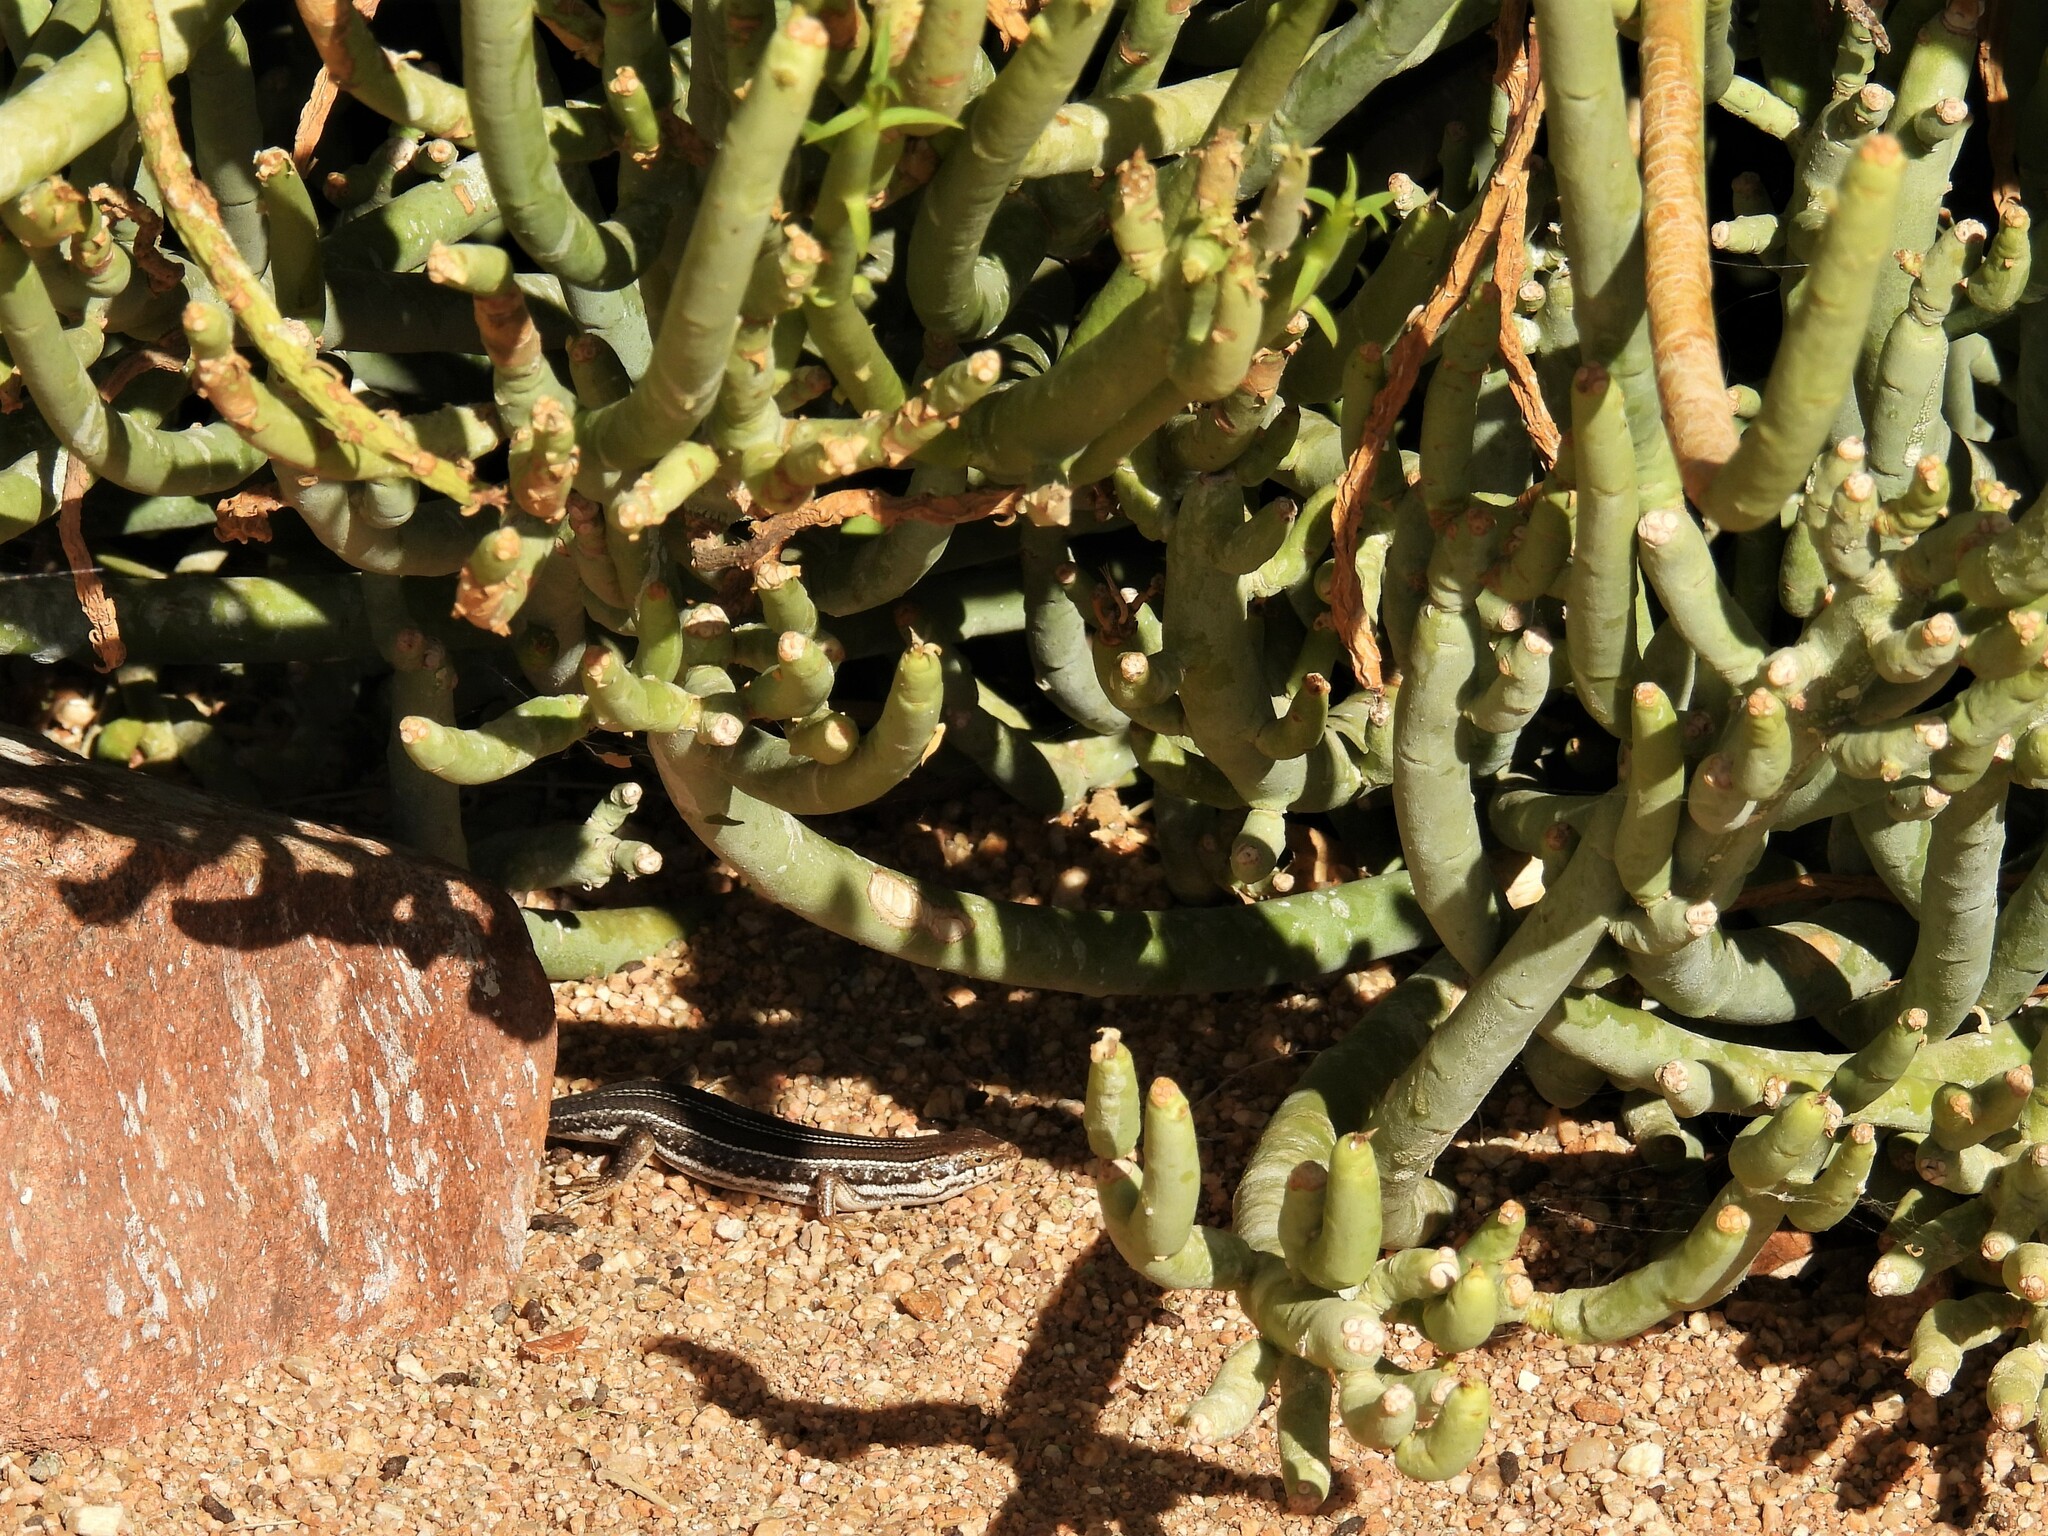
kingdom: Animalia
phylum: Chordata
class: Squamata
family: Scincidae
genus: Trachylepis
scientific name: Trachylepis occidentalis
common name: Western three-striped skink
